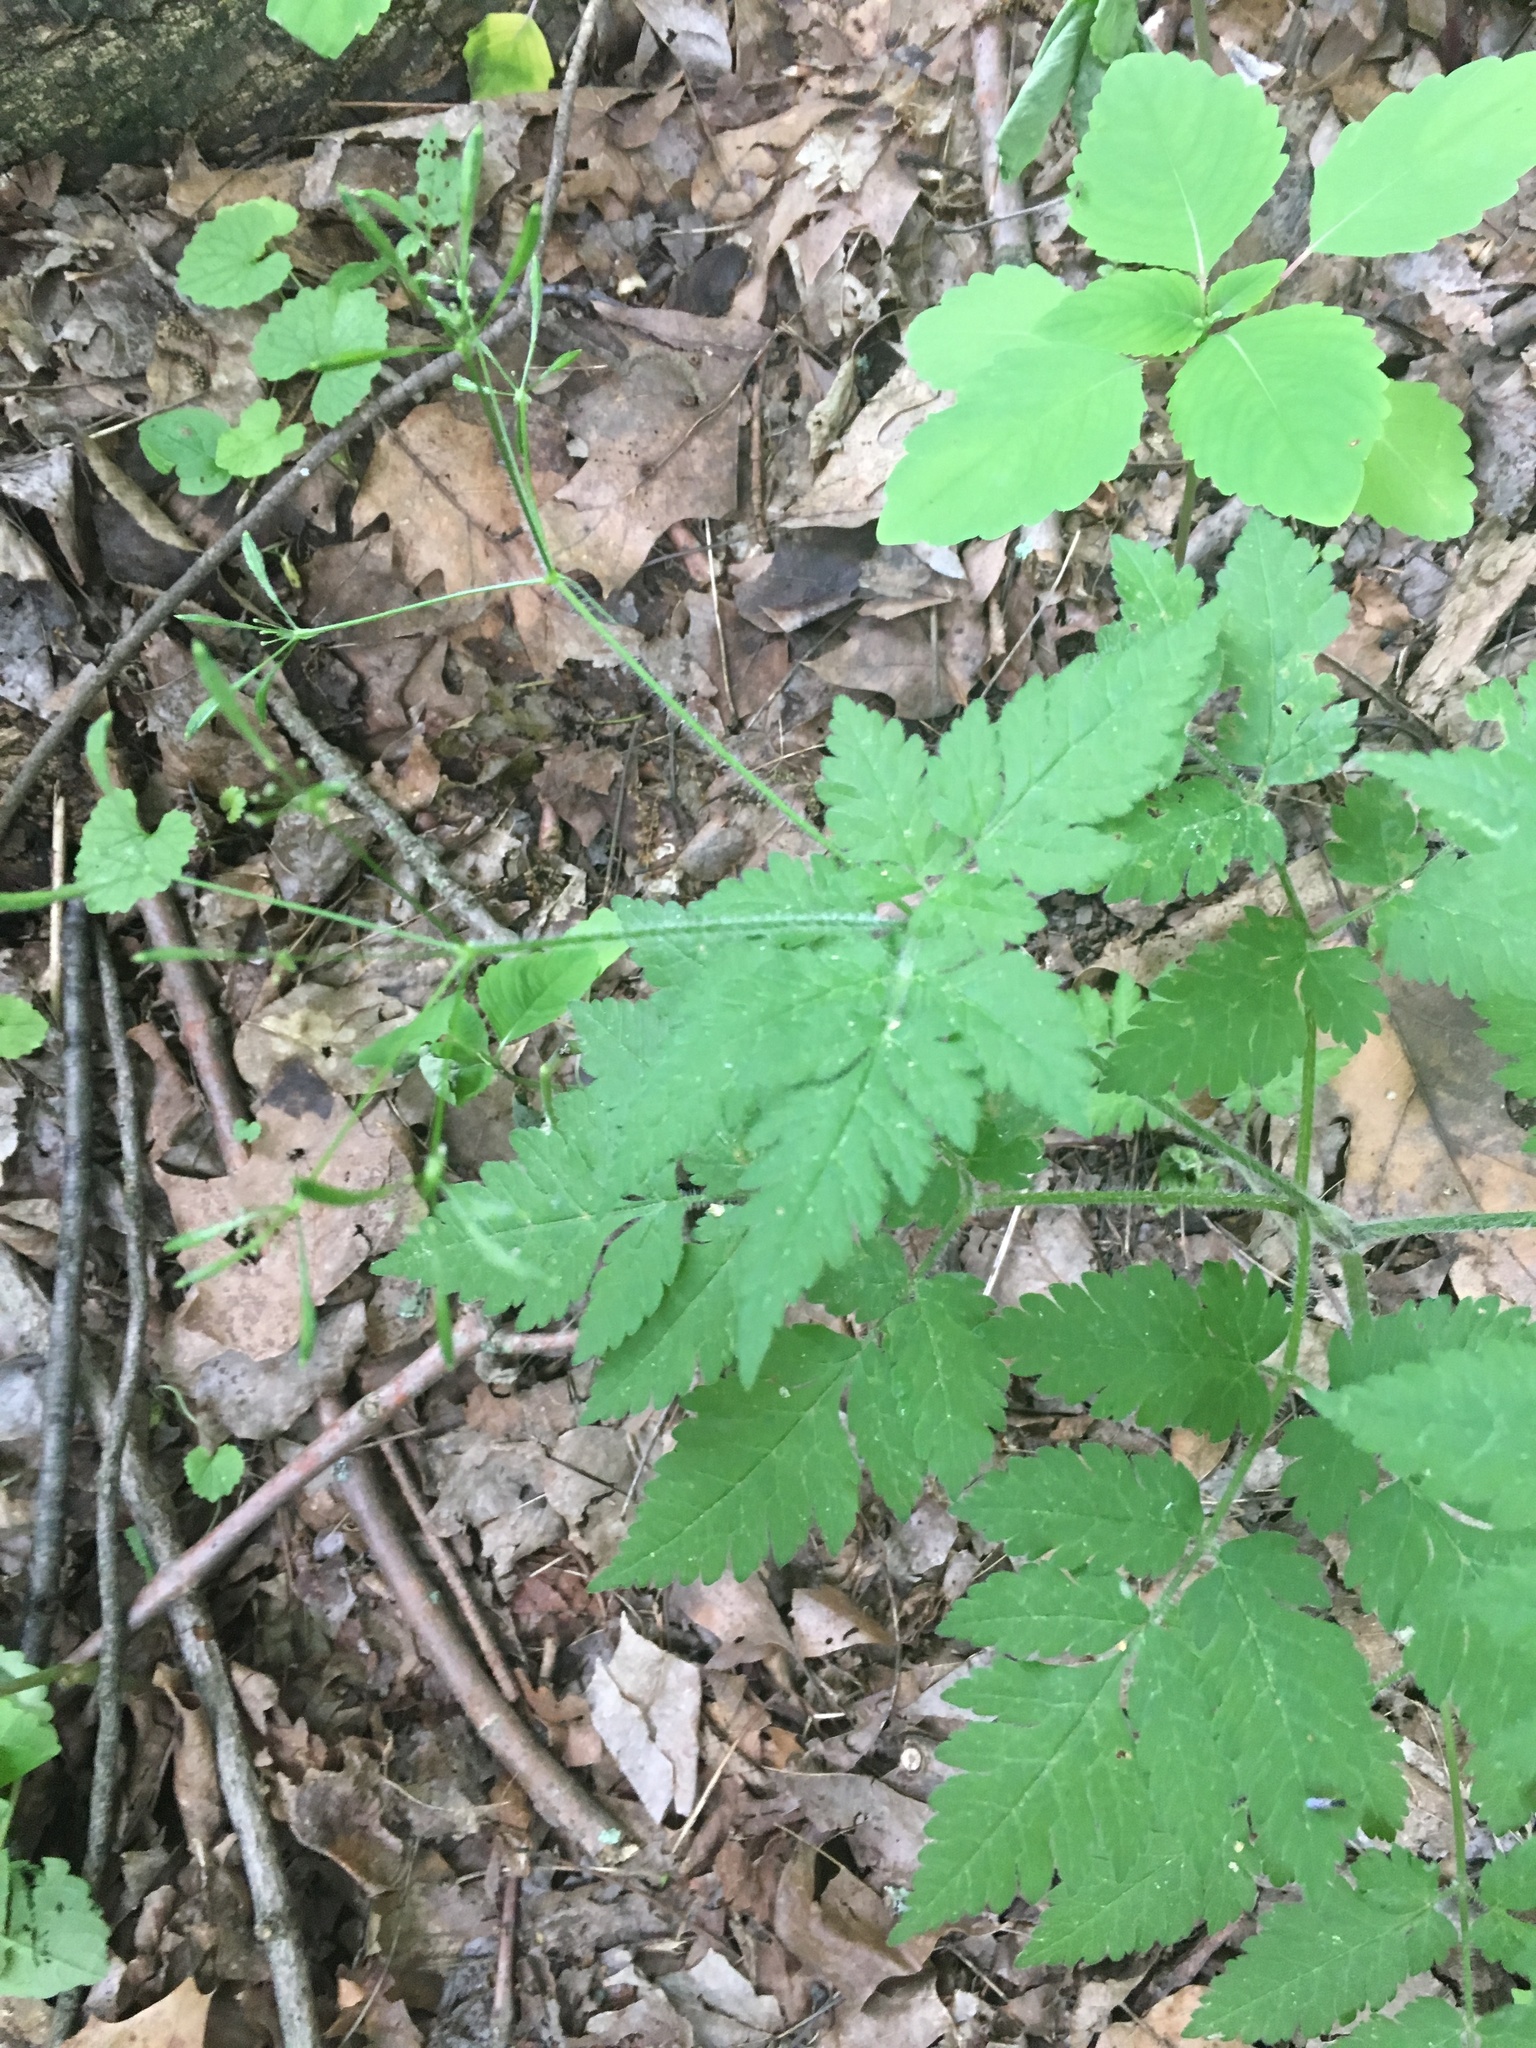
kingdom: Plantae
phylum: Tracheophyta
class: Magnoliopsida
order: Apiales
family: Apiaceae
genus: Osmorhiza
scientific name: Osmorhiza claytonii
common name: Hairy sweet cicely
